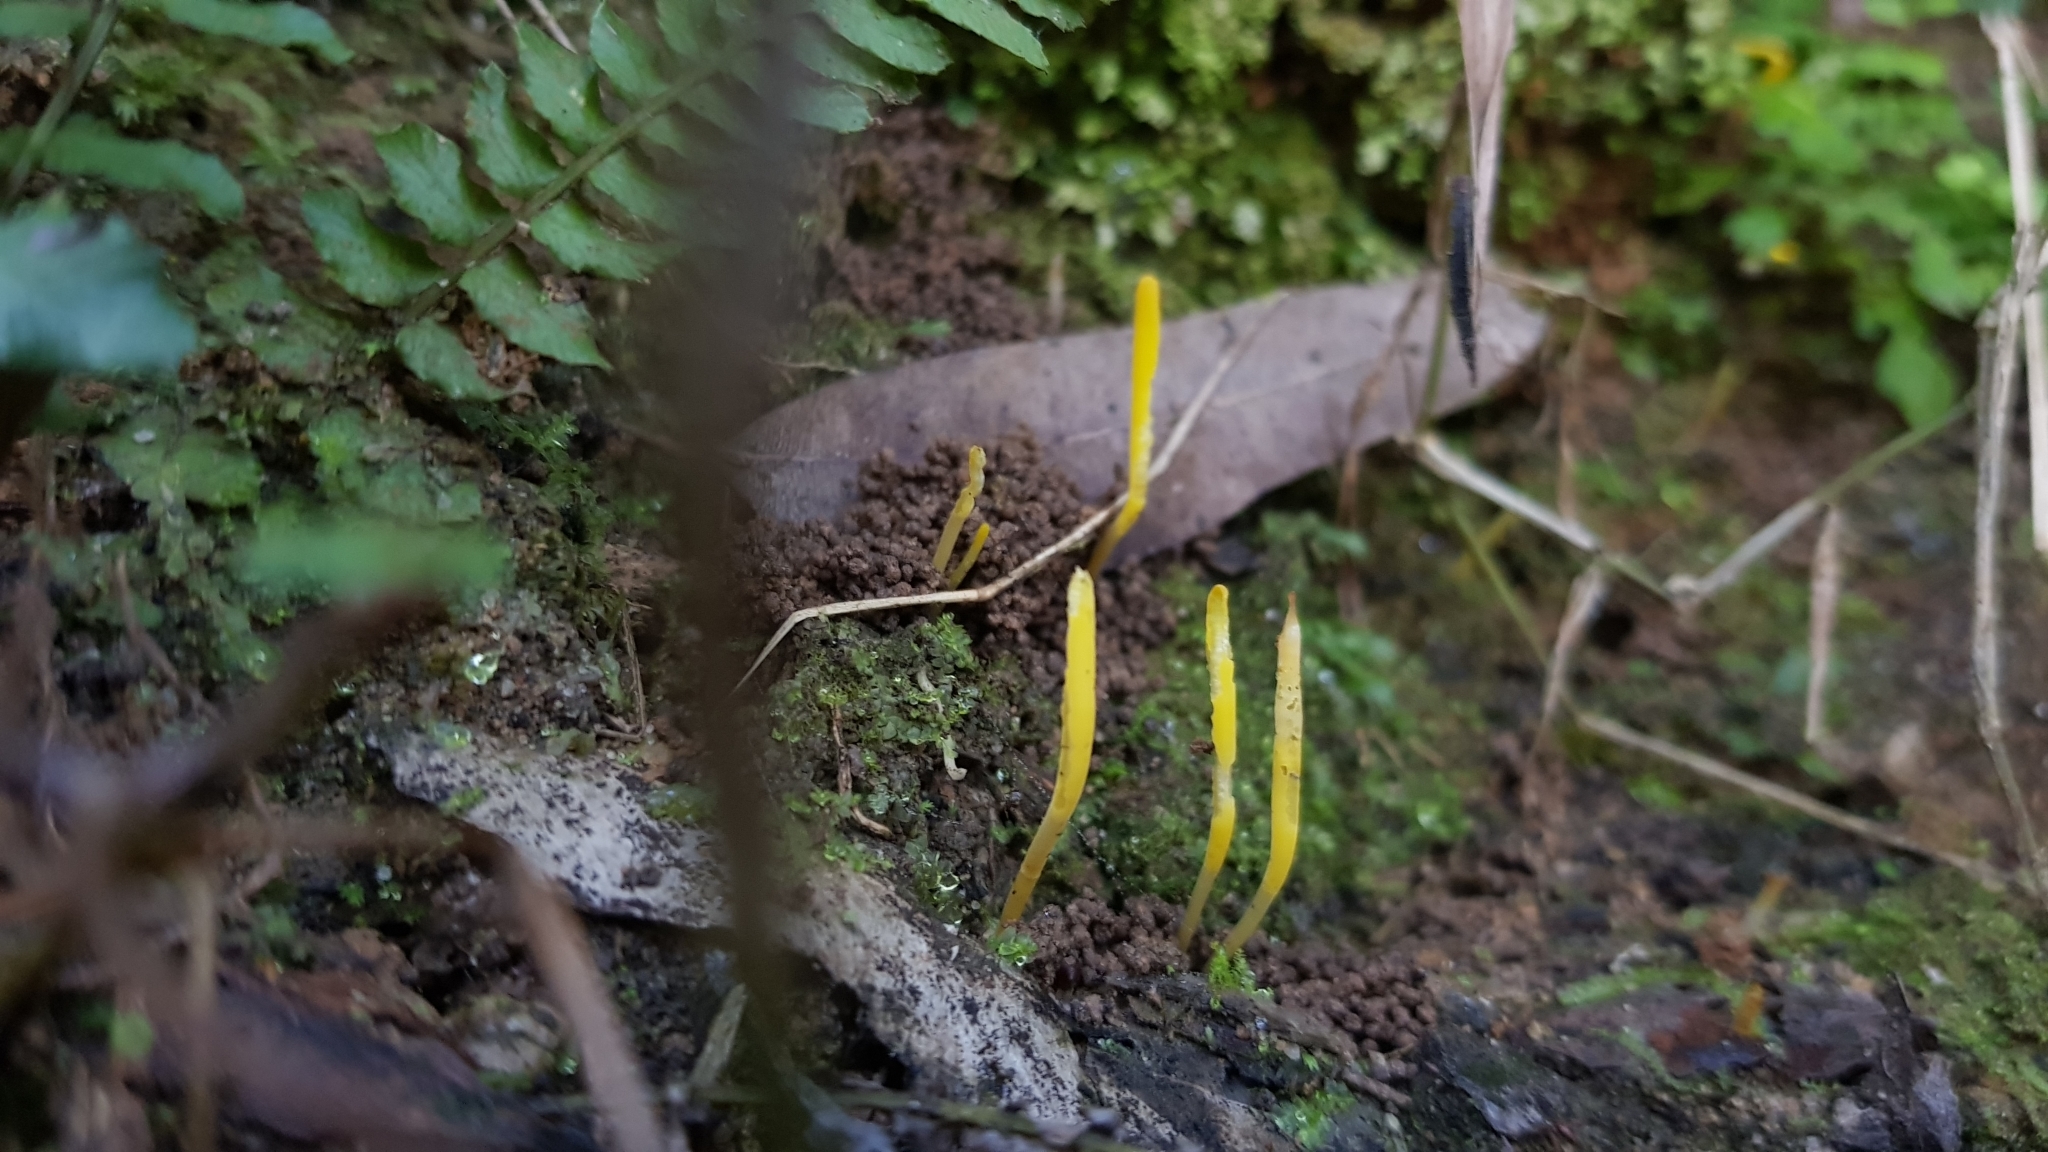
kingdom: Fungi
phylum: Basidiomycota
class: Agaricomycetes
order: Agaricales
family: Clavariaceae
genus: Clavulinopsis
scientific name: Clavulinopsis amoena
